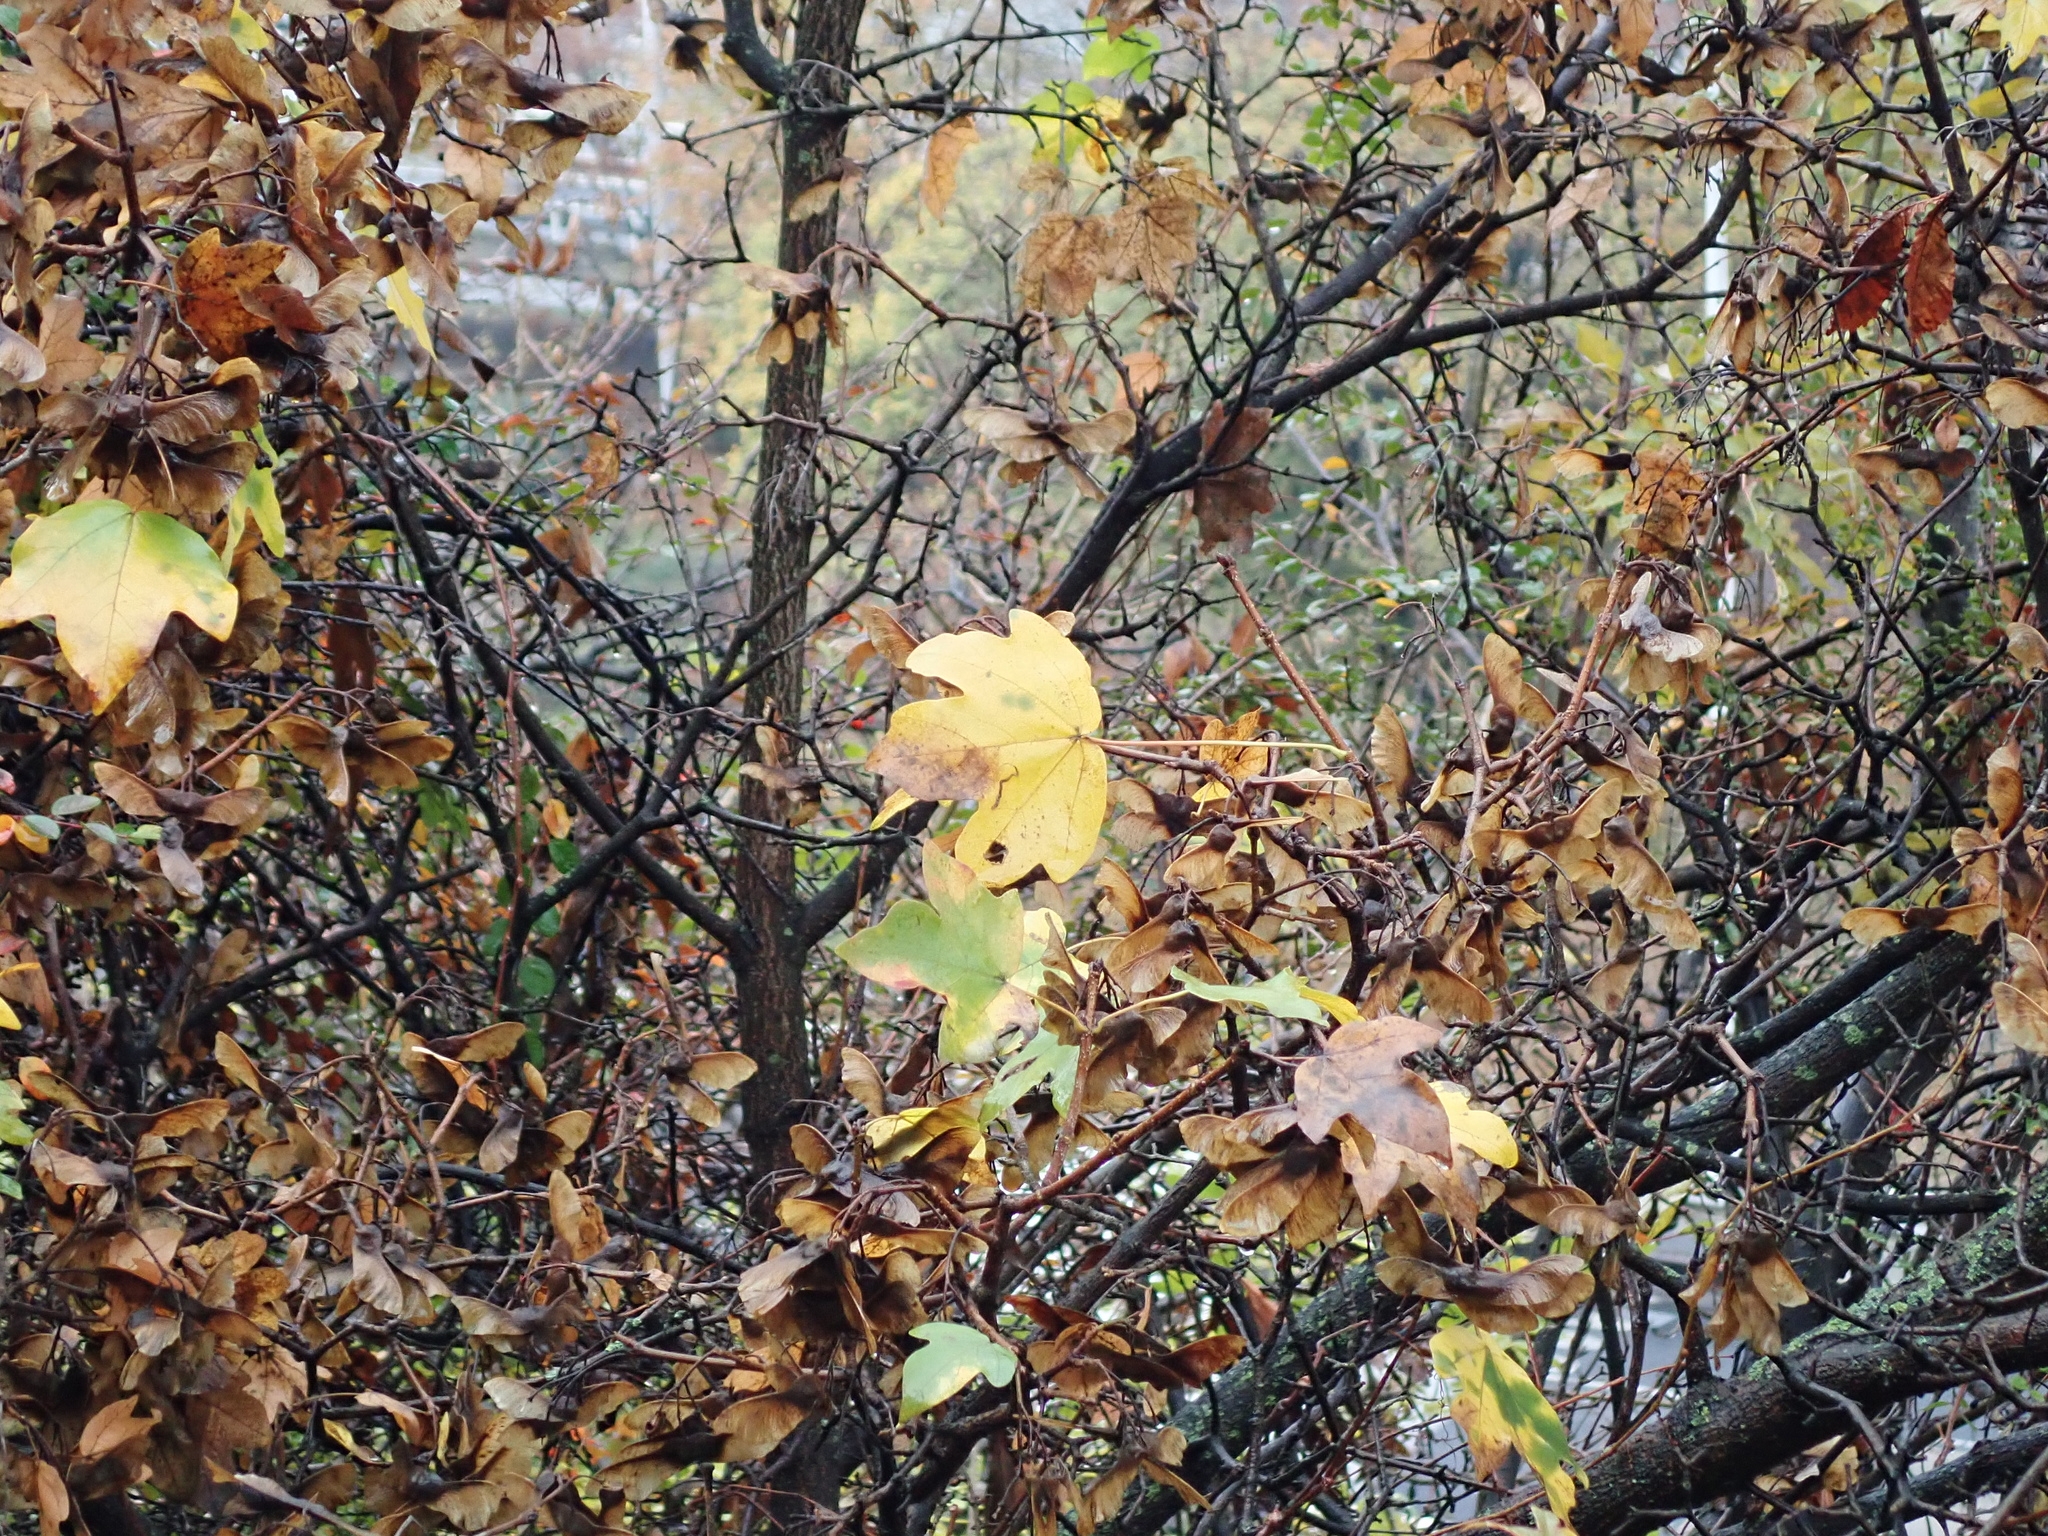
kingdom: Plantae
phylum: Tracheophyta
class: Magnoliopsida
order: Sapindales
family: Sapindaceae
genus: Acer
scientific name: Acer campestre
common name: Field maple
